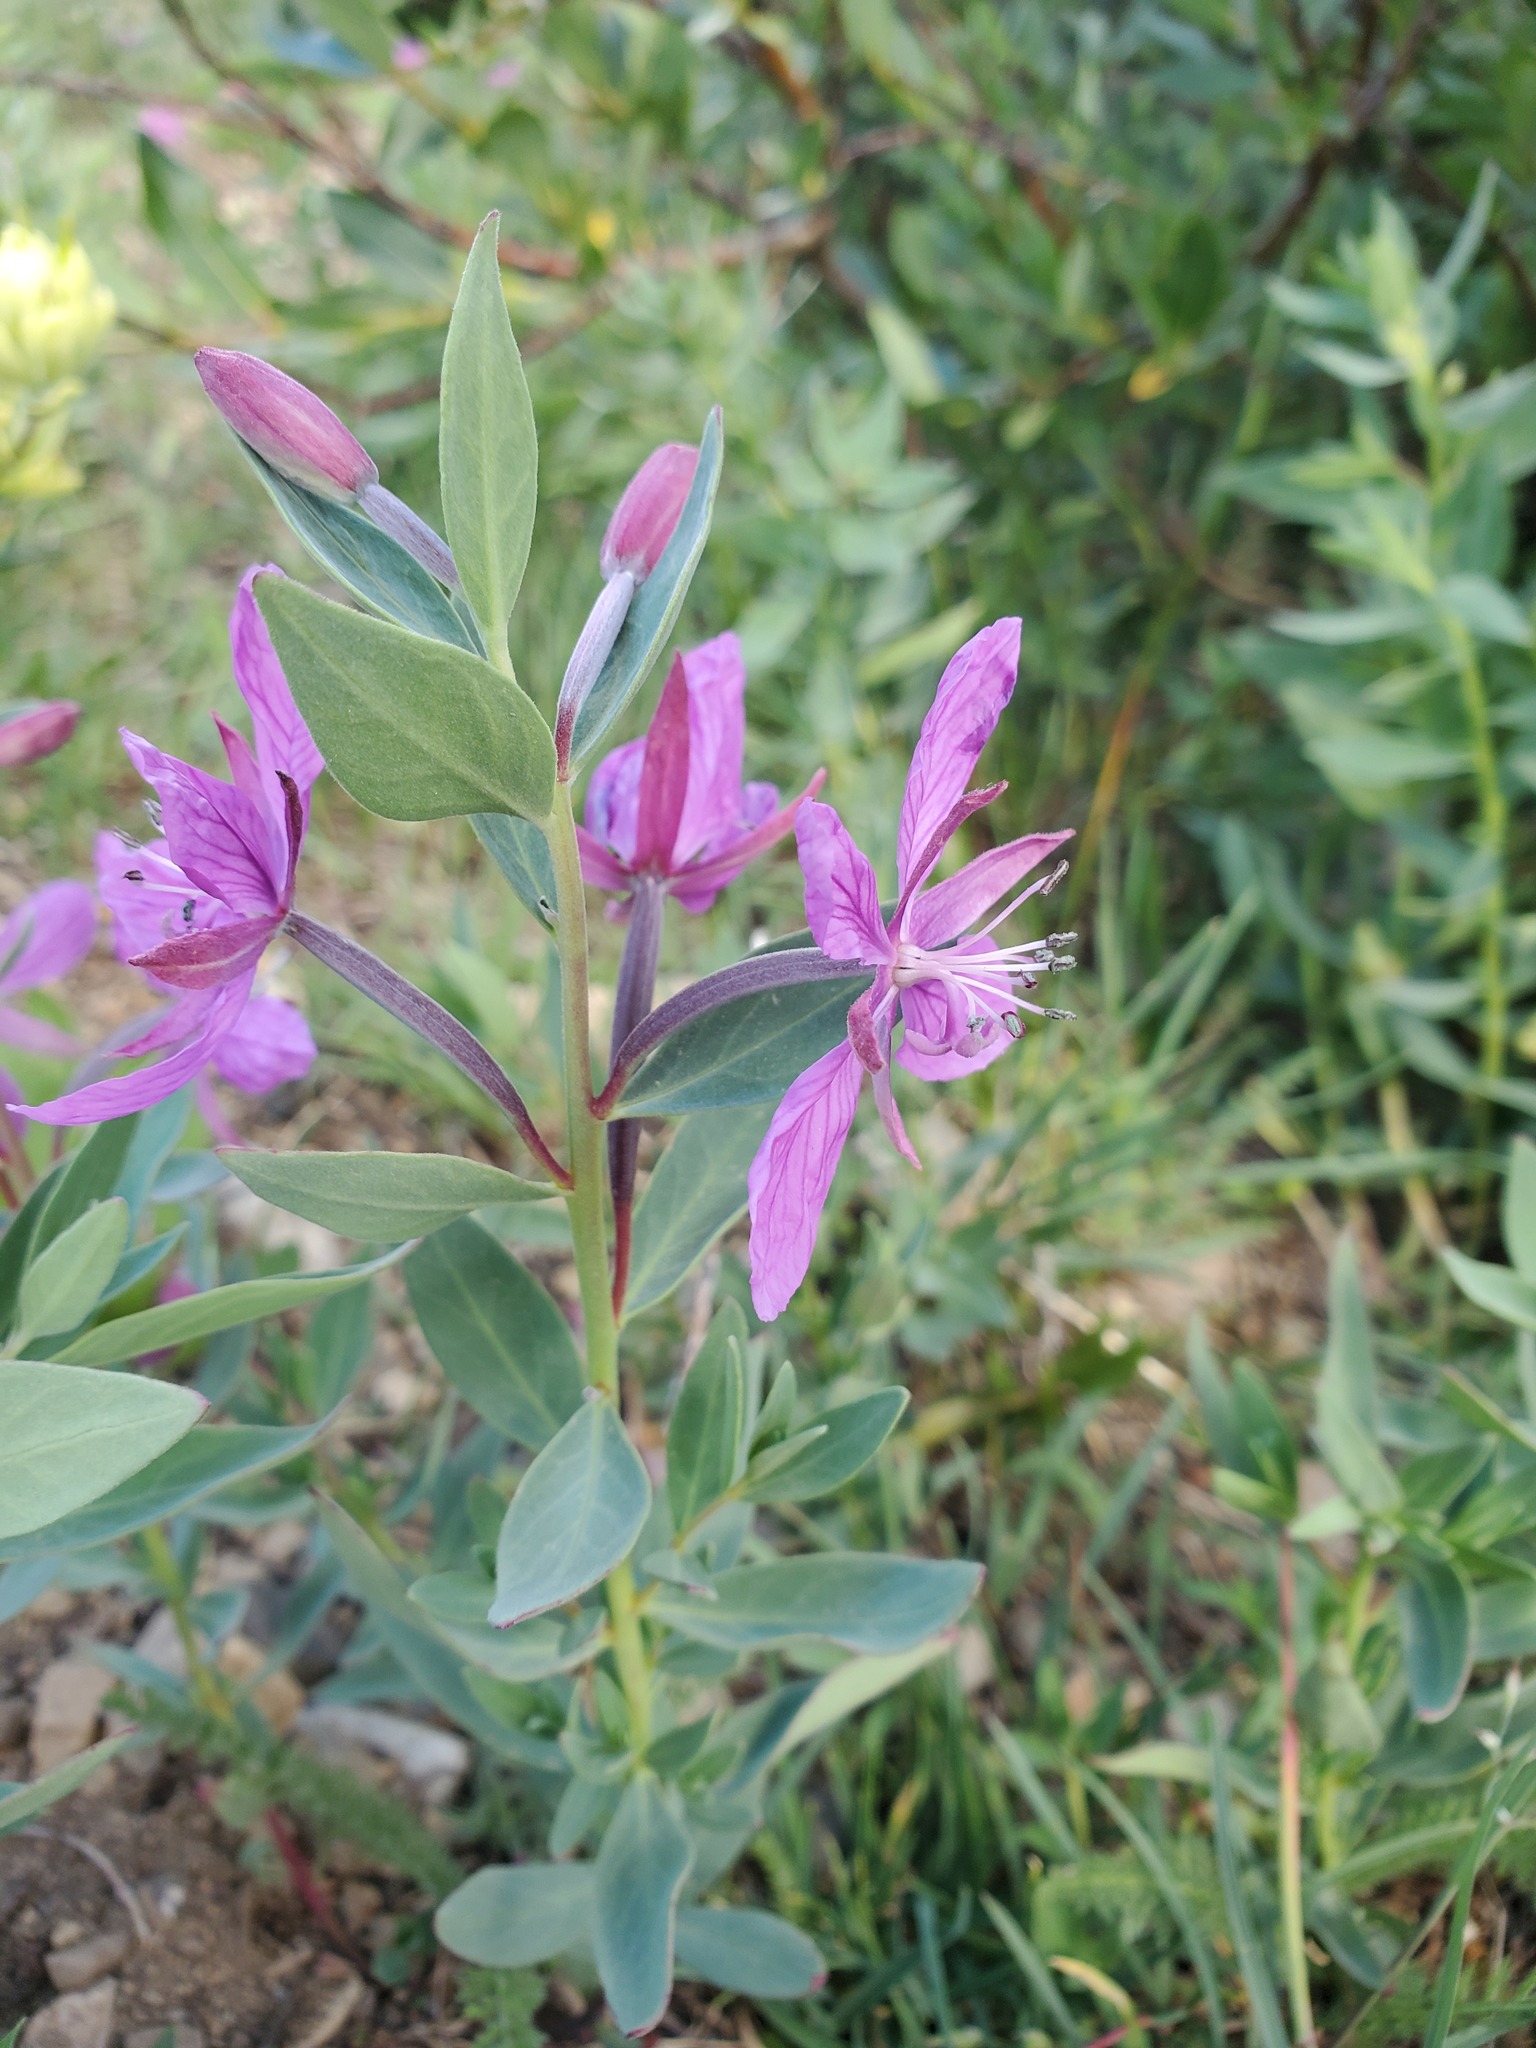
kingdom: Plantae
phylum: Tracheophyta
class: Magnoliopsida
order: Myrtales
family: Onagraceae
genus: Chamaenerion
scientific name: Chamaenerion latifolium
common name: Dwarf fireweed
